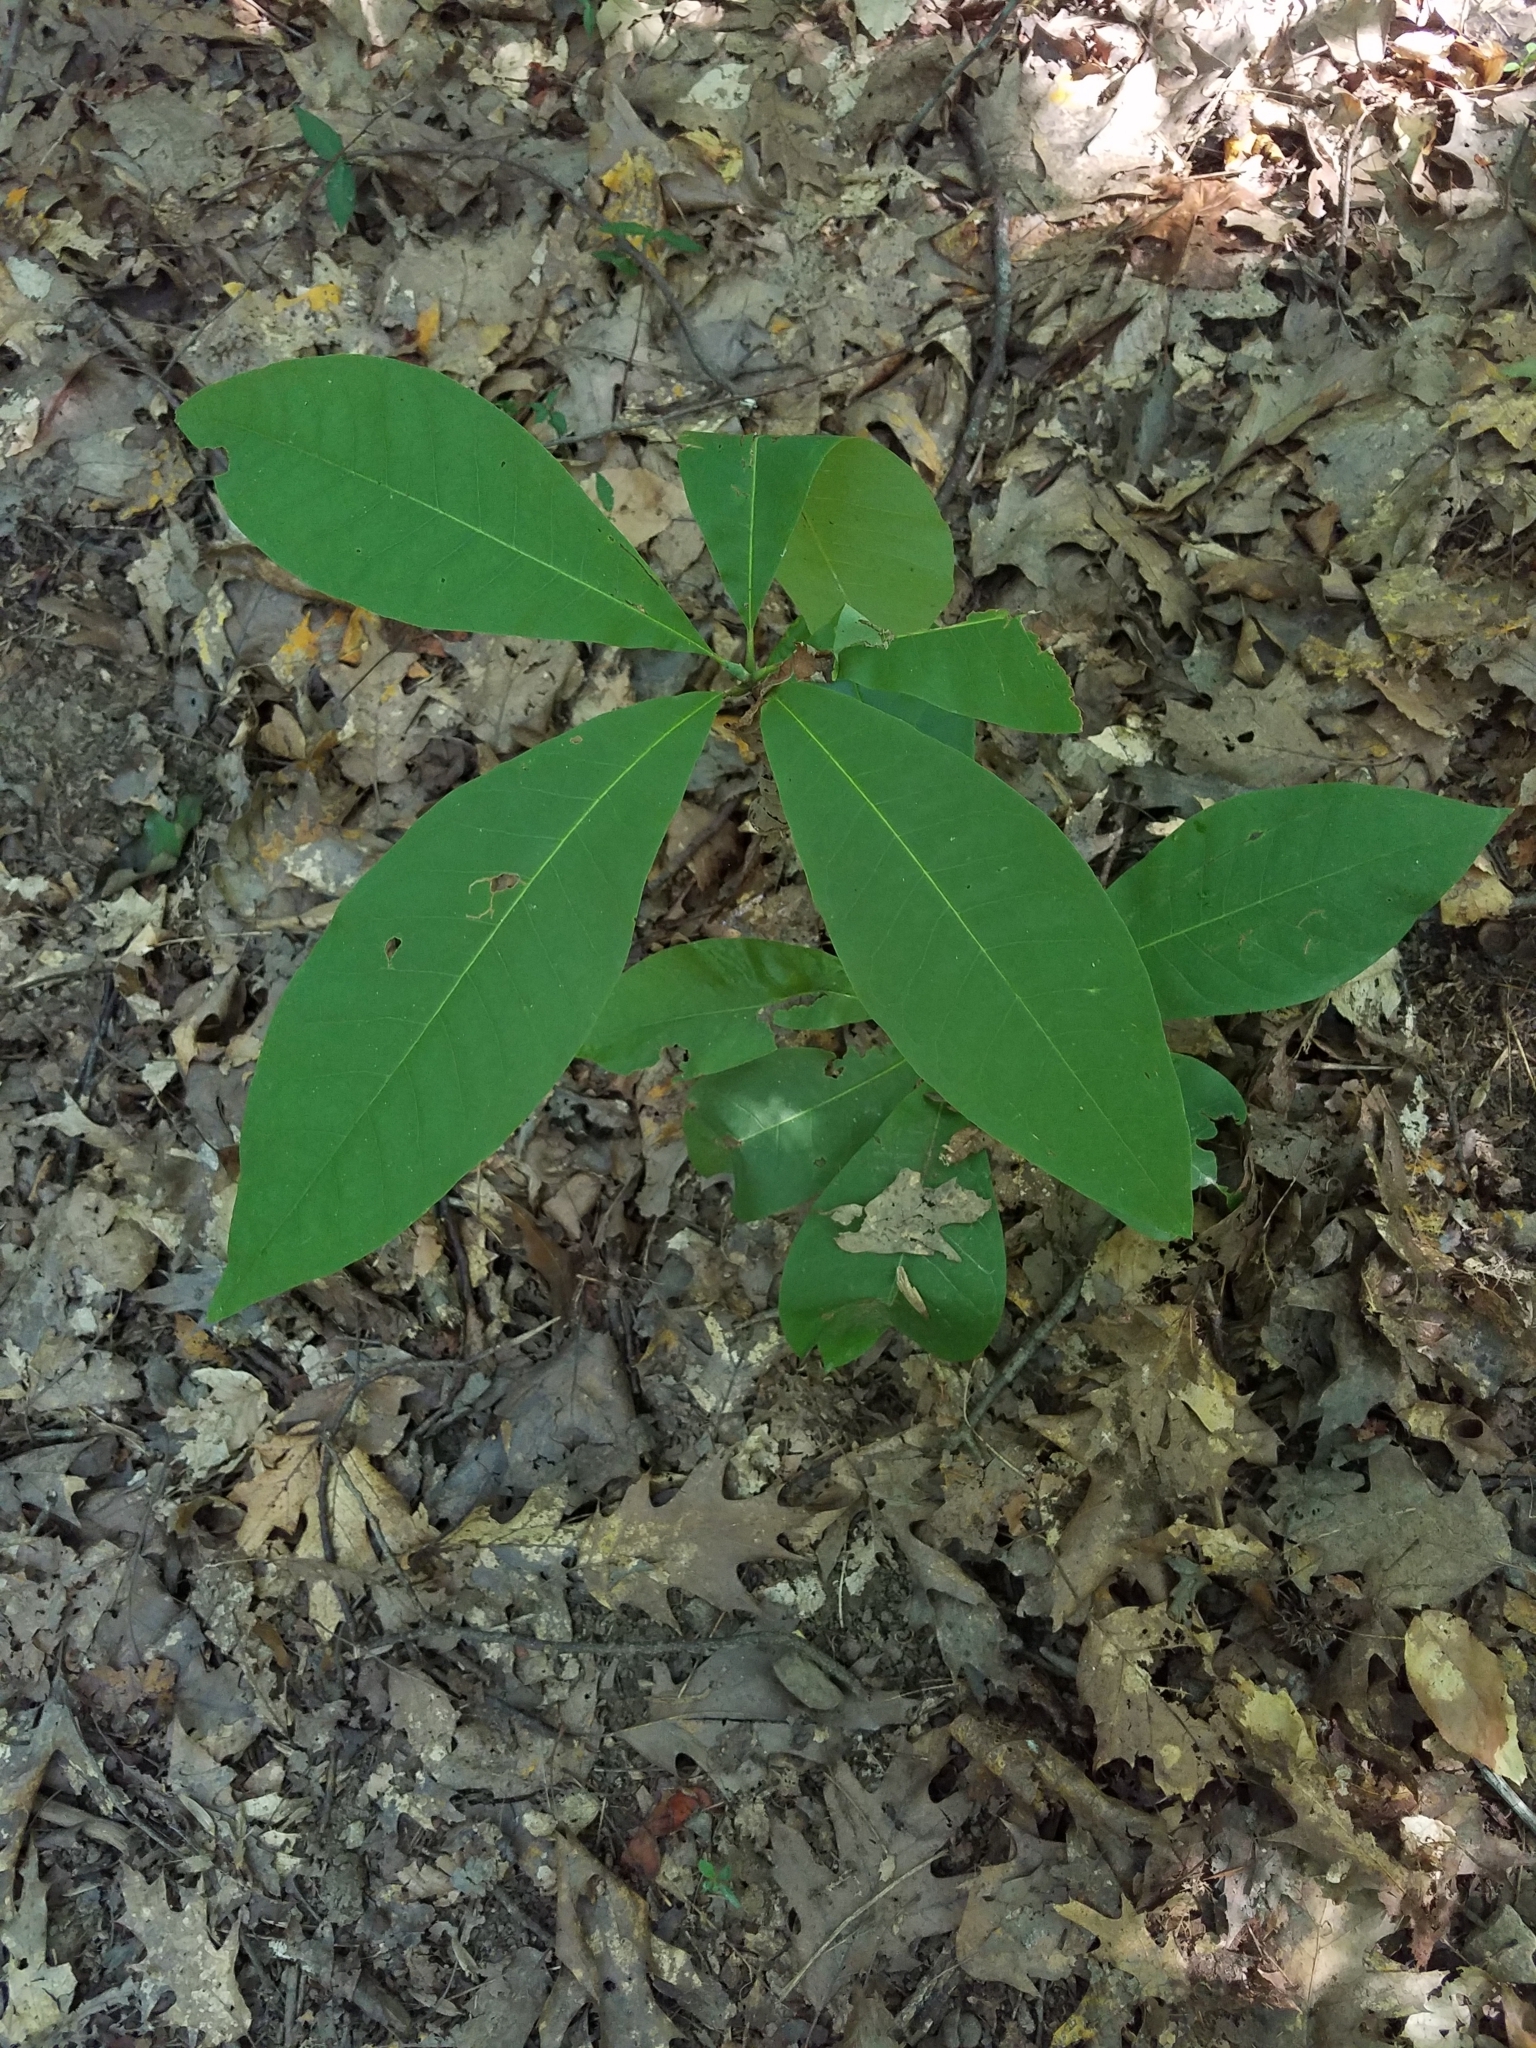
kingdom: Plantae
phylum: Tracheophyta
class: Magnoliopsida
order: Magnoliales
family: Magnoliaceae
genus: Magnolia
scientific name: Magnolia tripetala
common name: Umbrella magnolia
